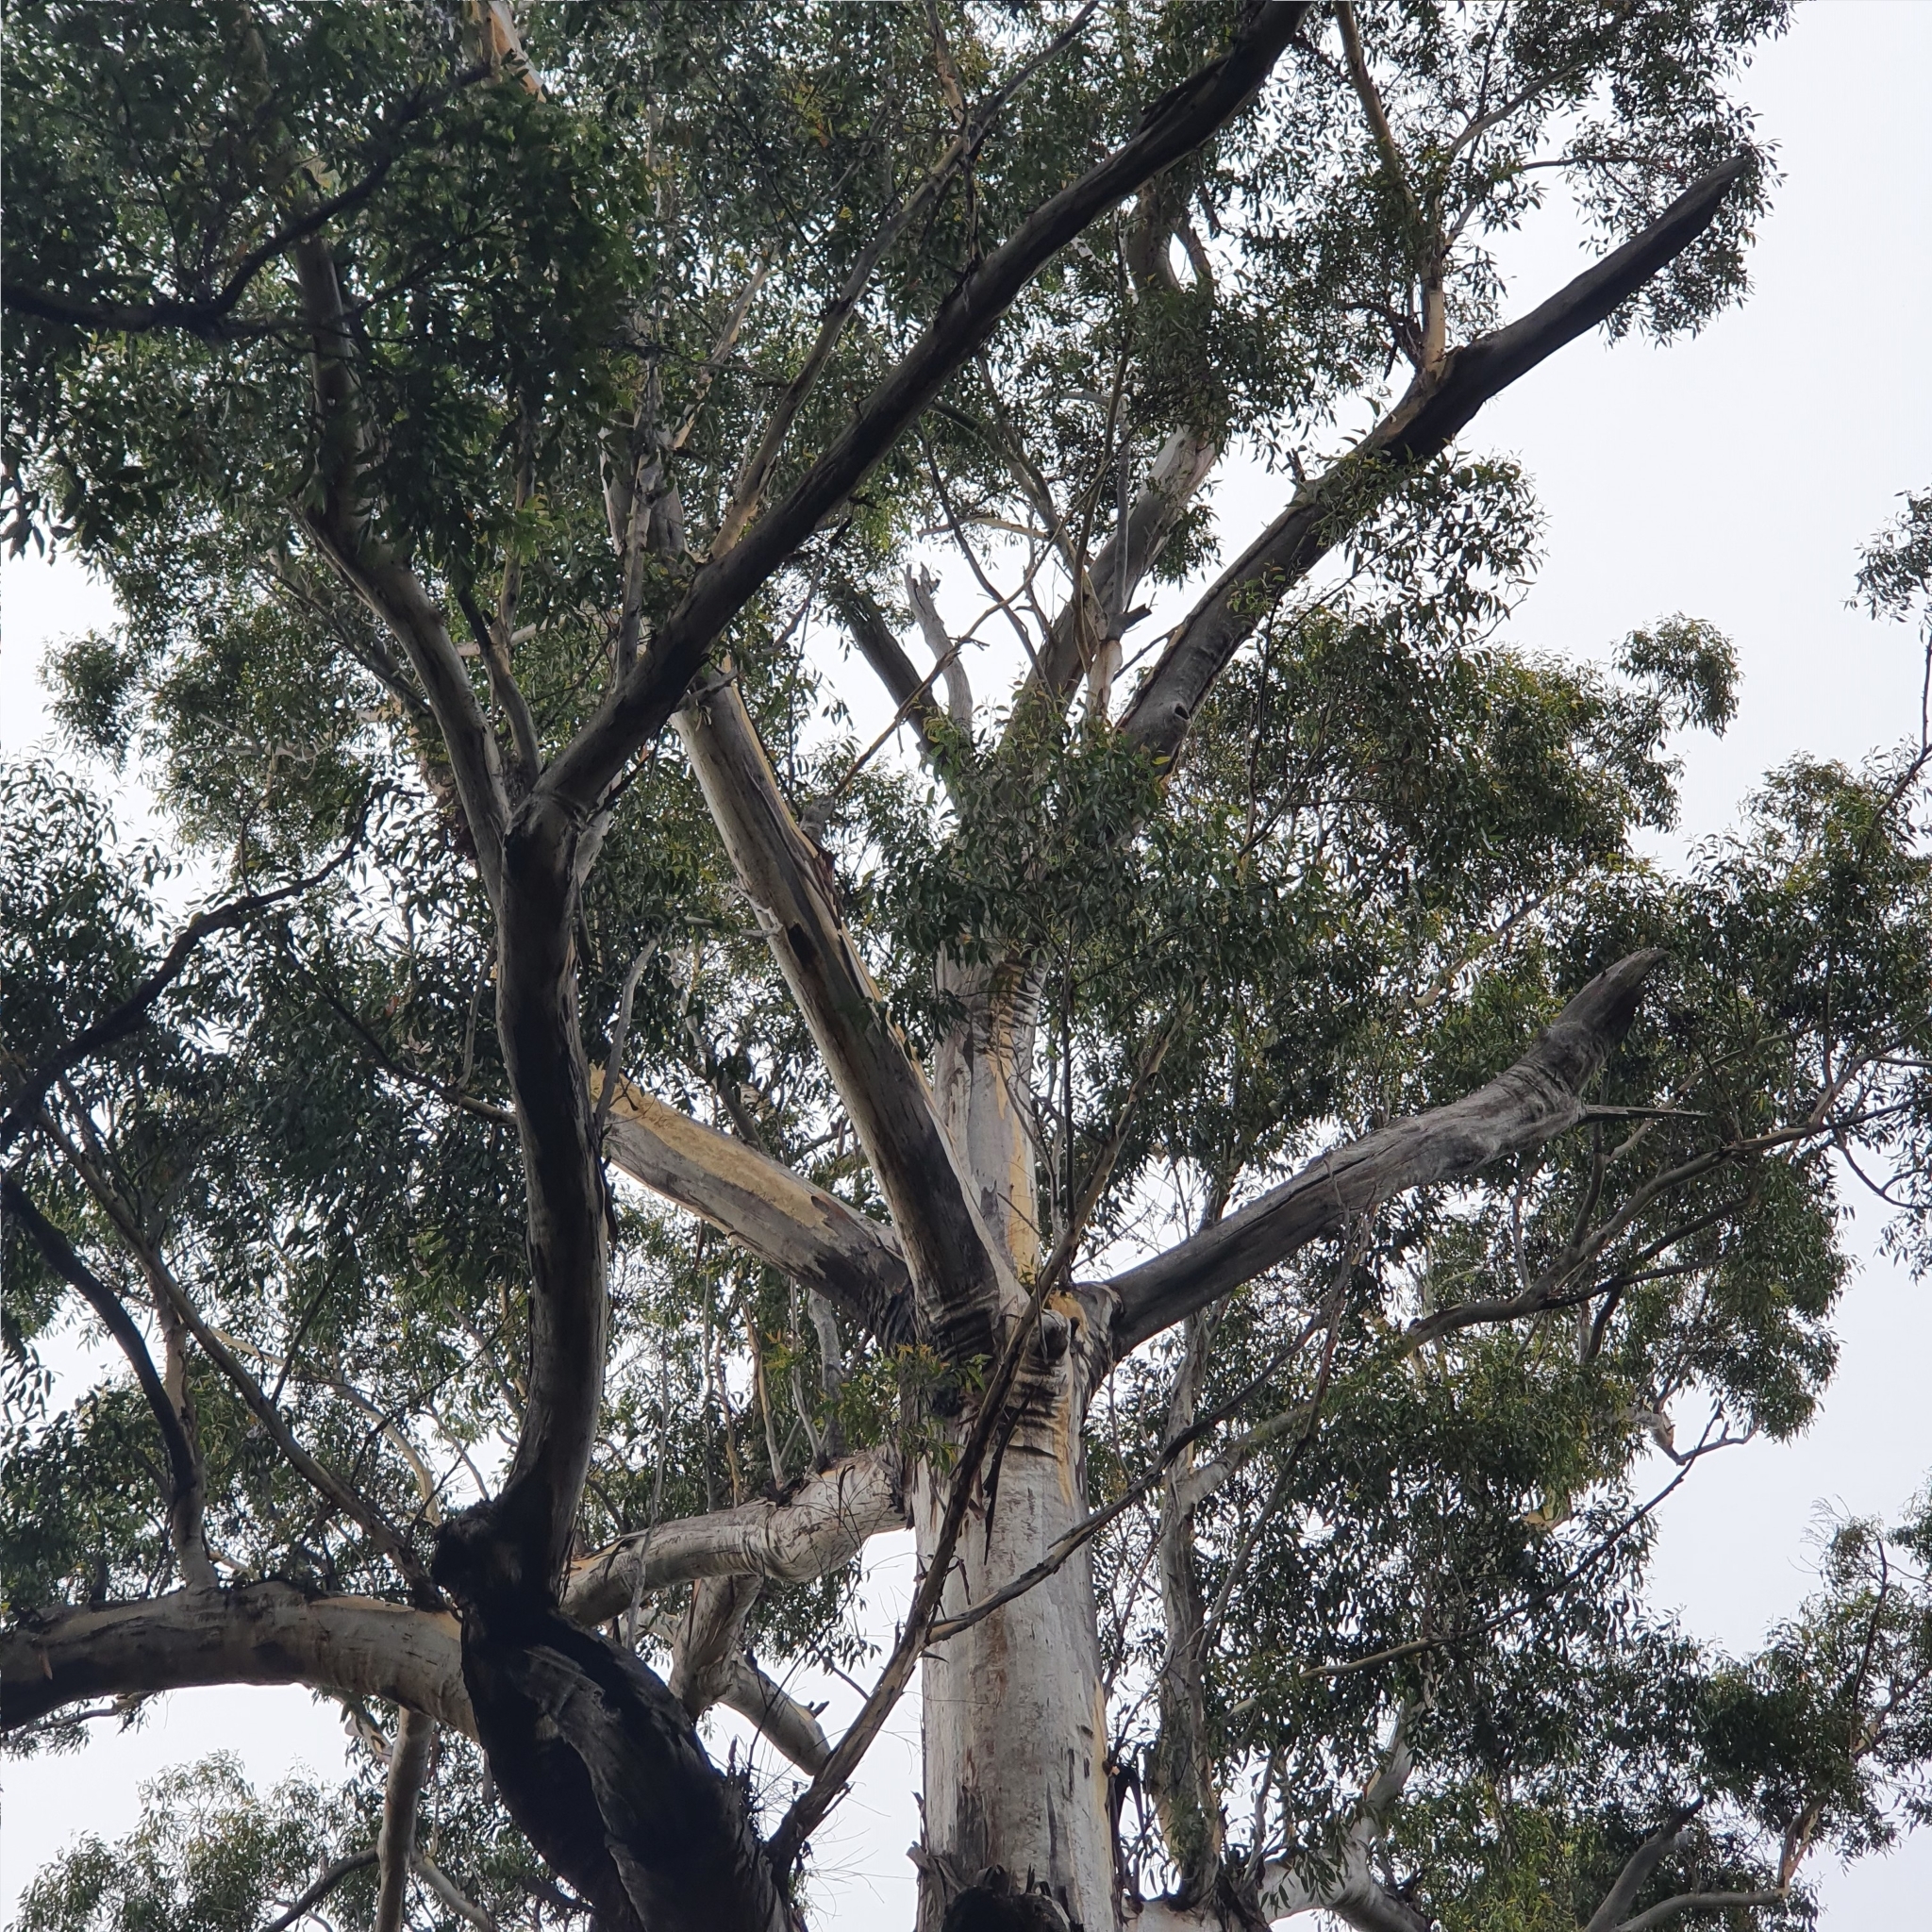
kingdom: Plantae
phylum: Tracheophyta
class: Magnoliopsida
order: Myrtales
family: Myrtaceae
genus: Eucalyptus
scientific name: Eucalyptus pilularis
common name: Blackbutt
